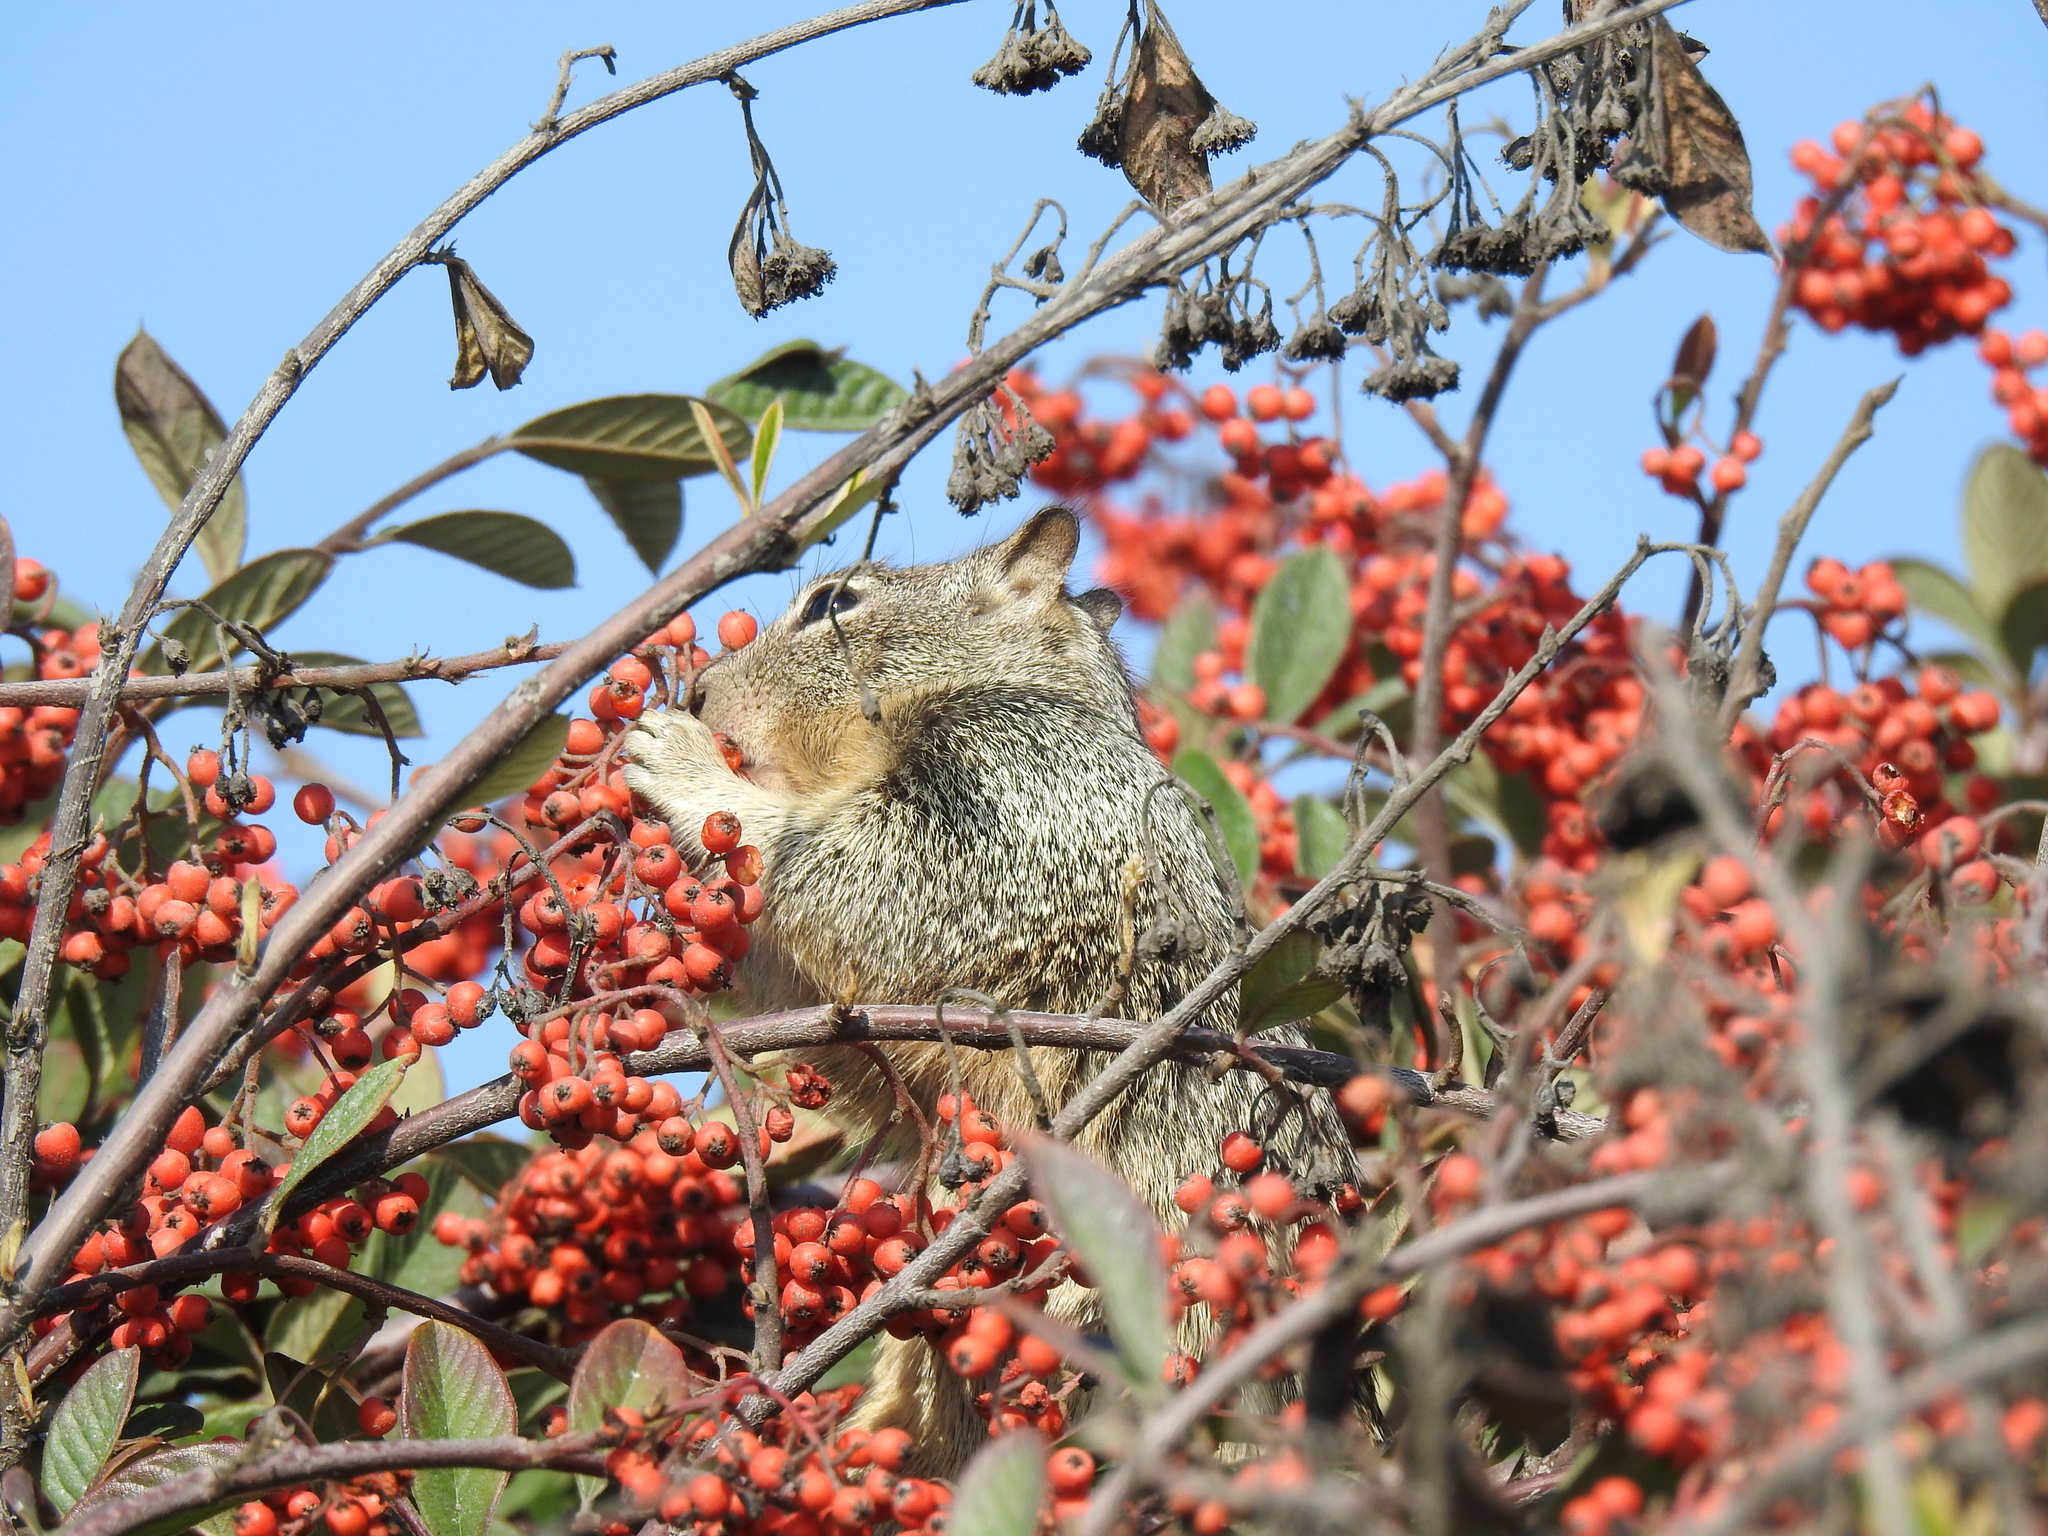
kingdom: Animalia
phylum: Chordata
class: Mammalia
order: Rodentia
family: Sciuridae
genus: Otospermophilus
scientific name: Otospermophilus beecheyi
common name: California ground squirrel
